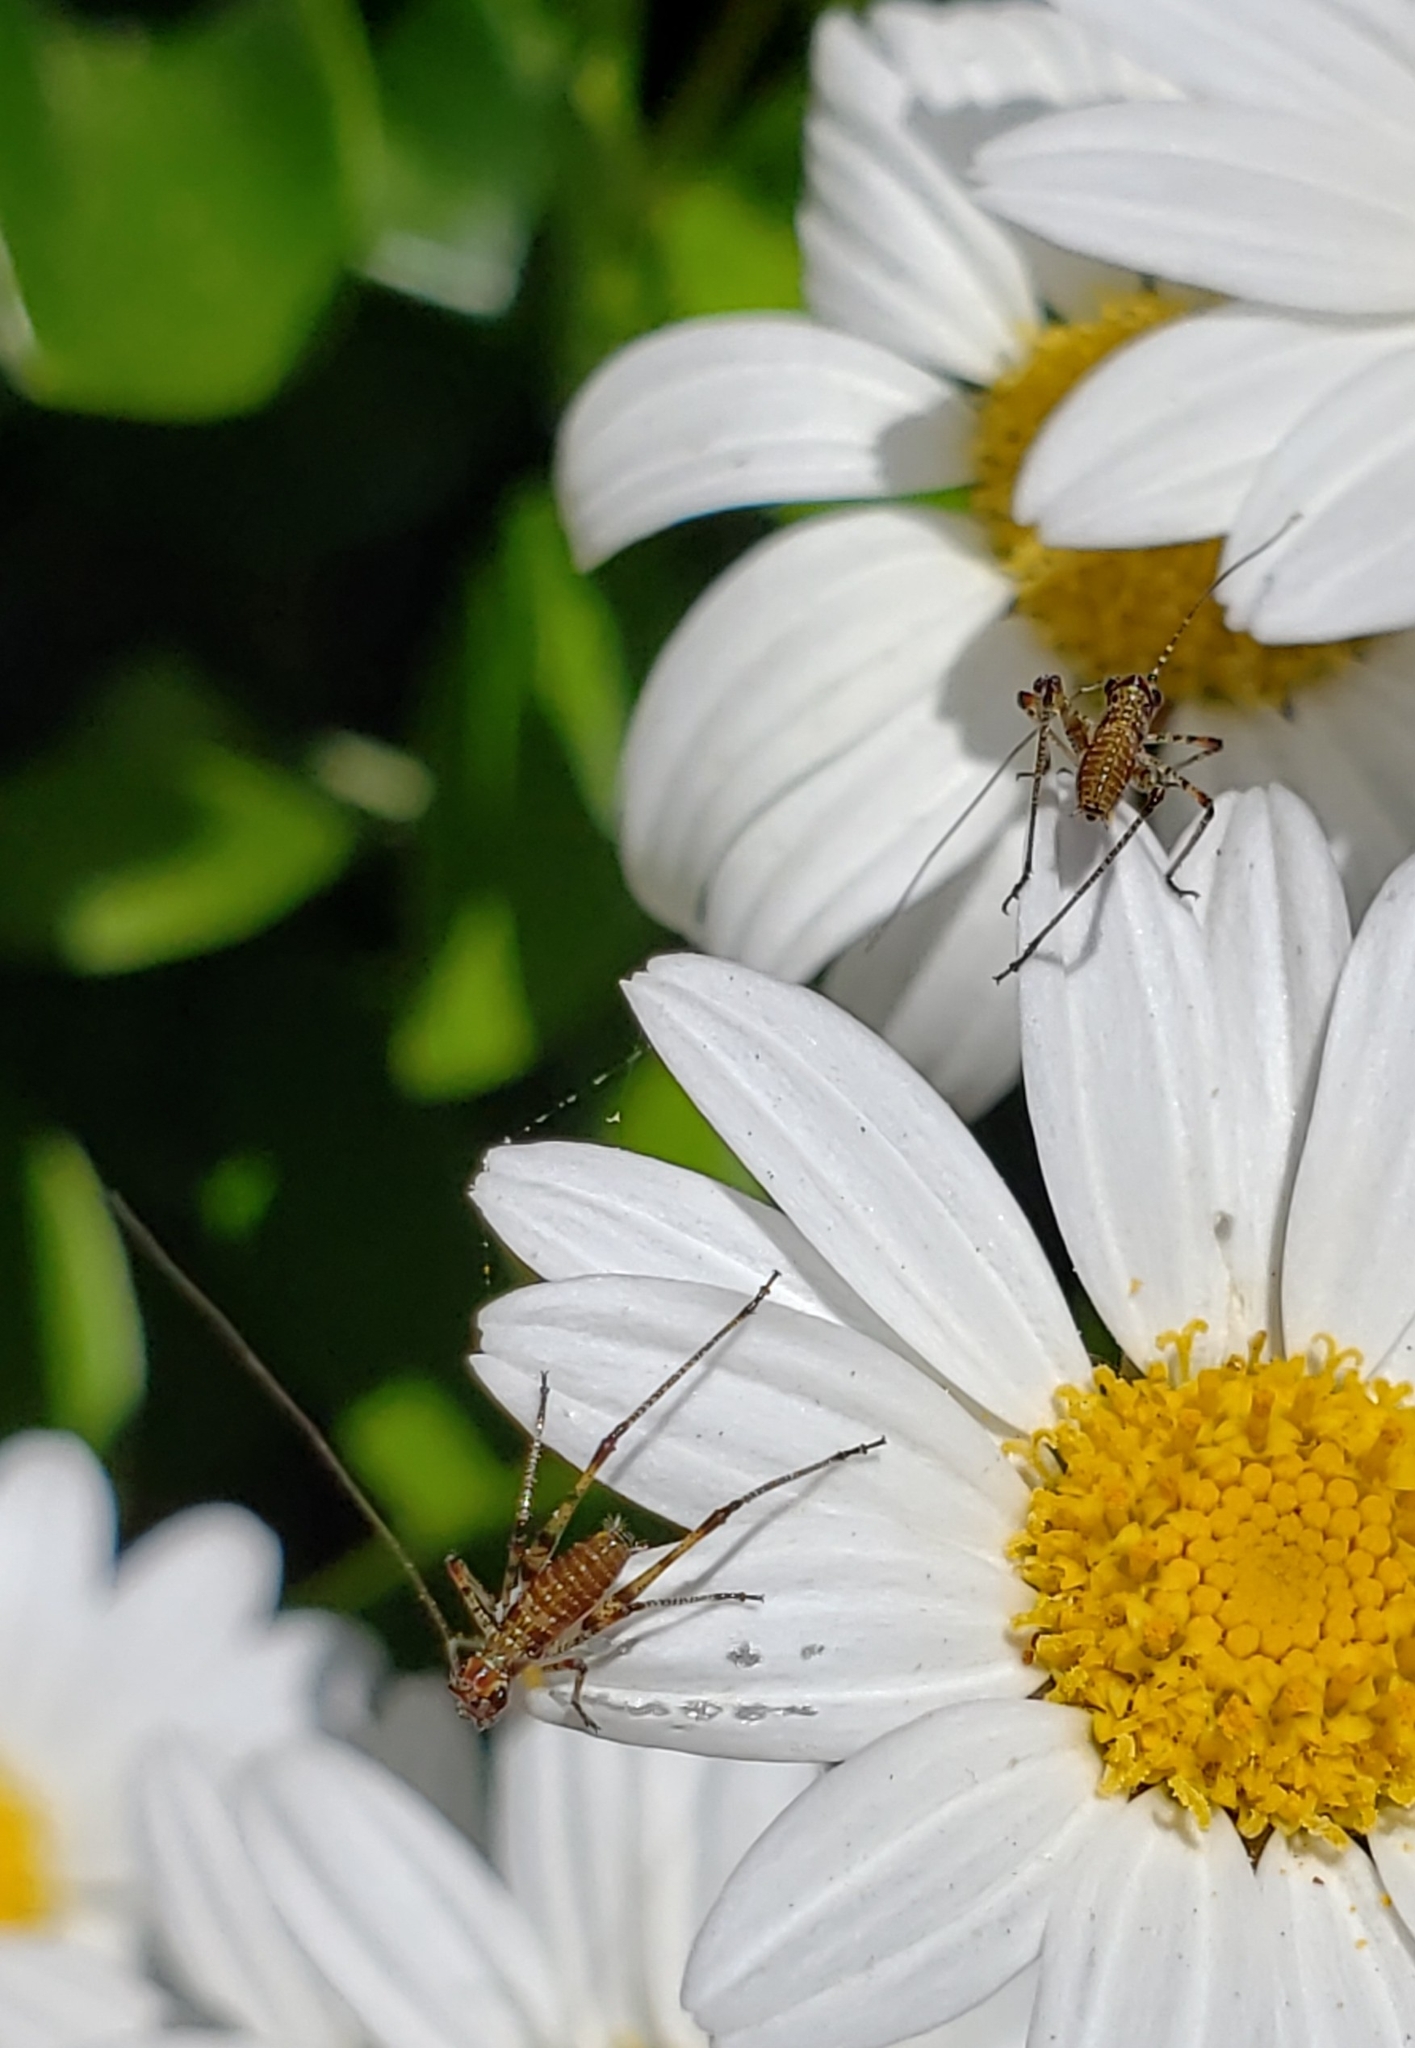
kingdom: Animalia
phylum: Arthropoda
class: Insecta
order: Orthoptera
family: Tettigoniidae
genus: Phaneroptera
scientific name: Phaneroptera nana
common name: Southern sickle bush-cricket
